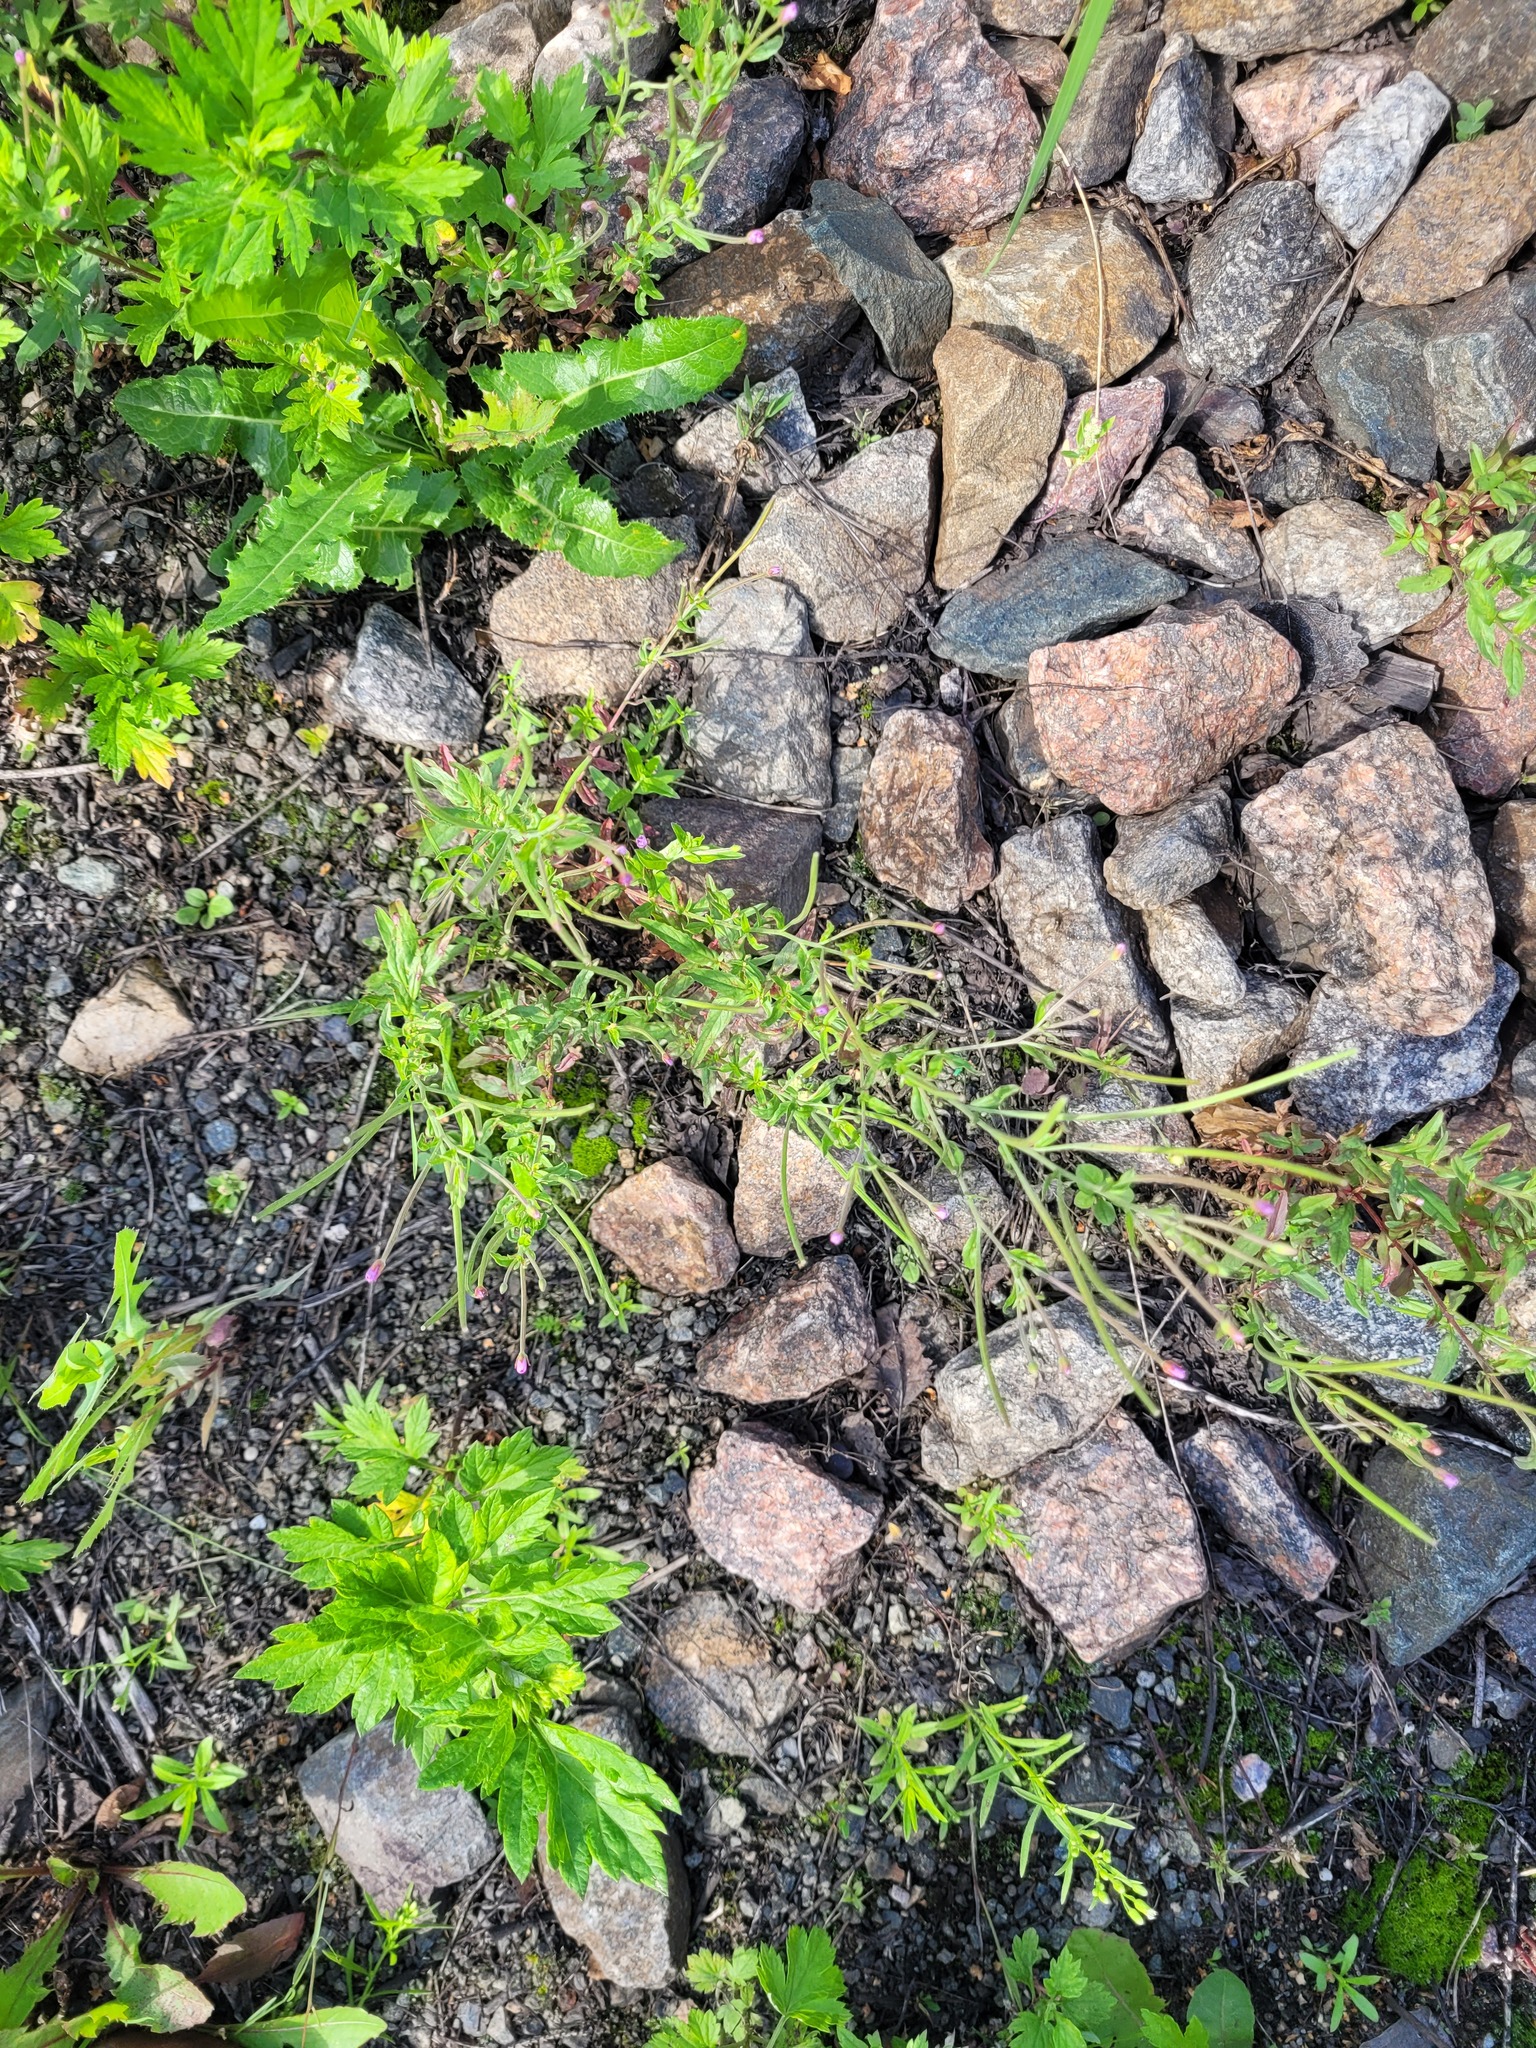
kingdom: Plantae
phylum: Tracheophyta
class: Magnoliopsida
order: Myrtales
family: Onagraceae
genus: Epilobium
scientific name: Epilobium lamyi
